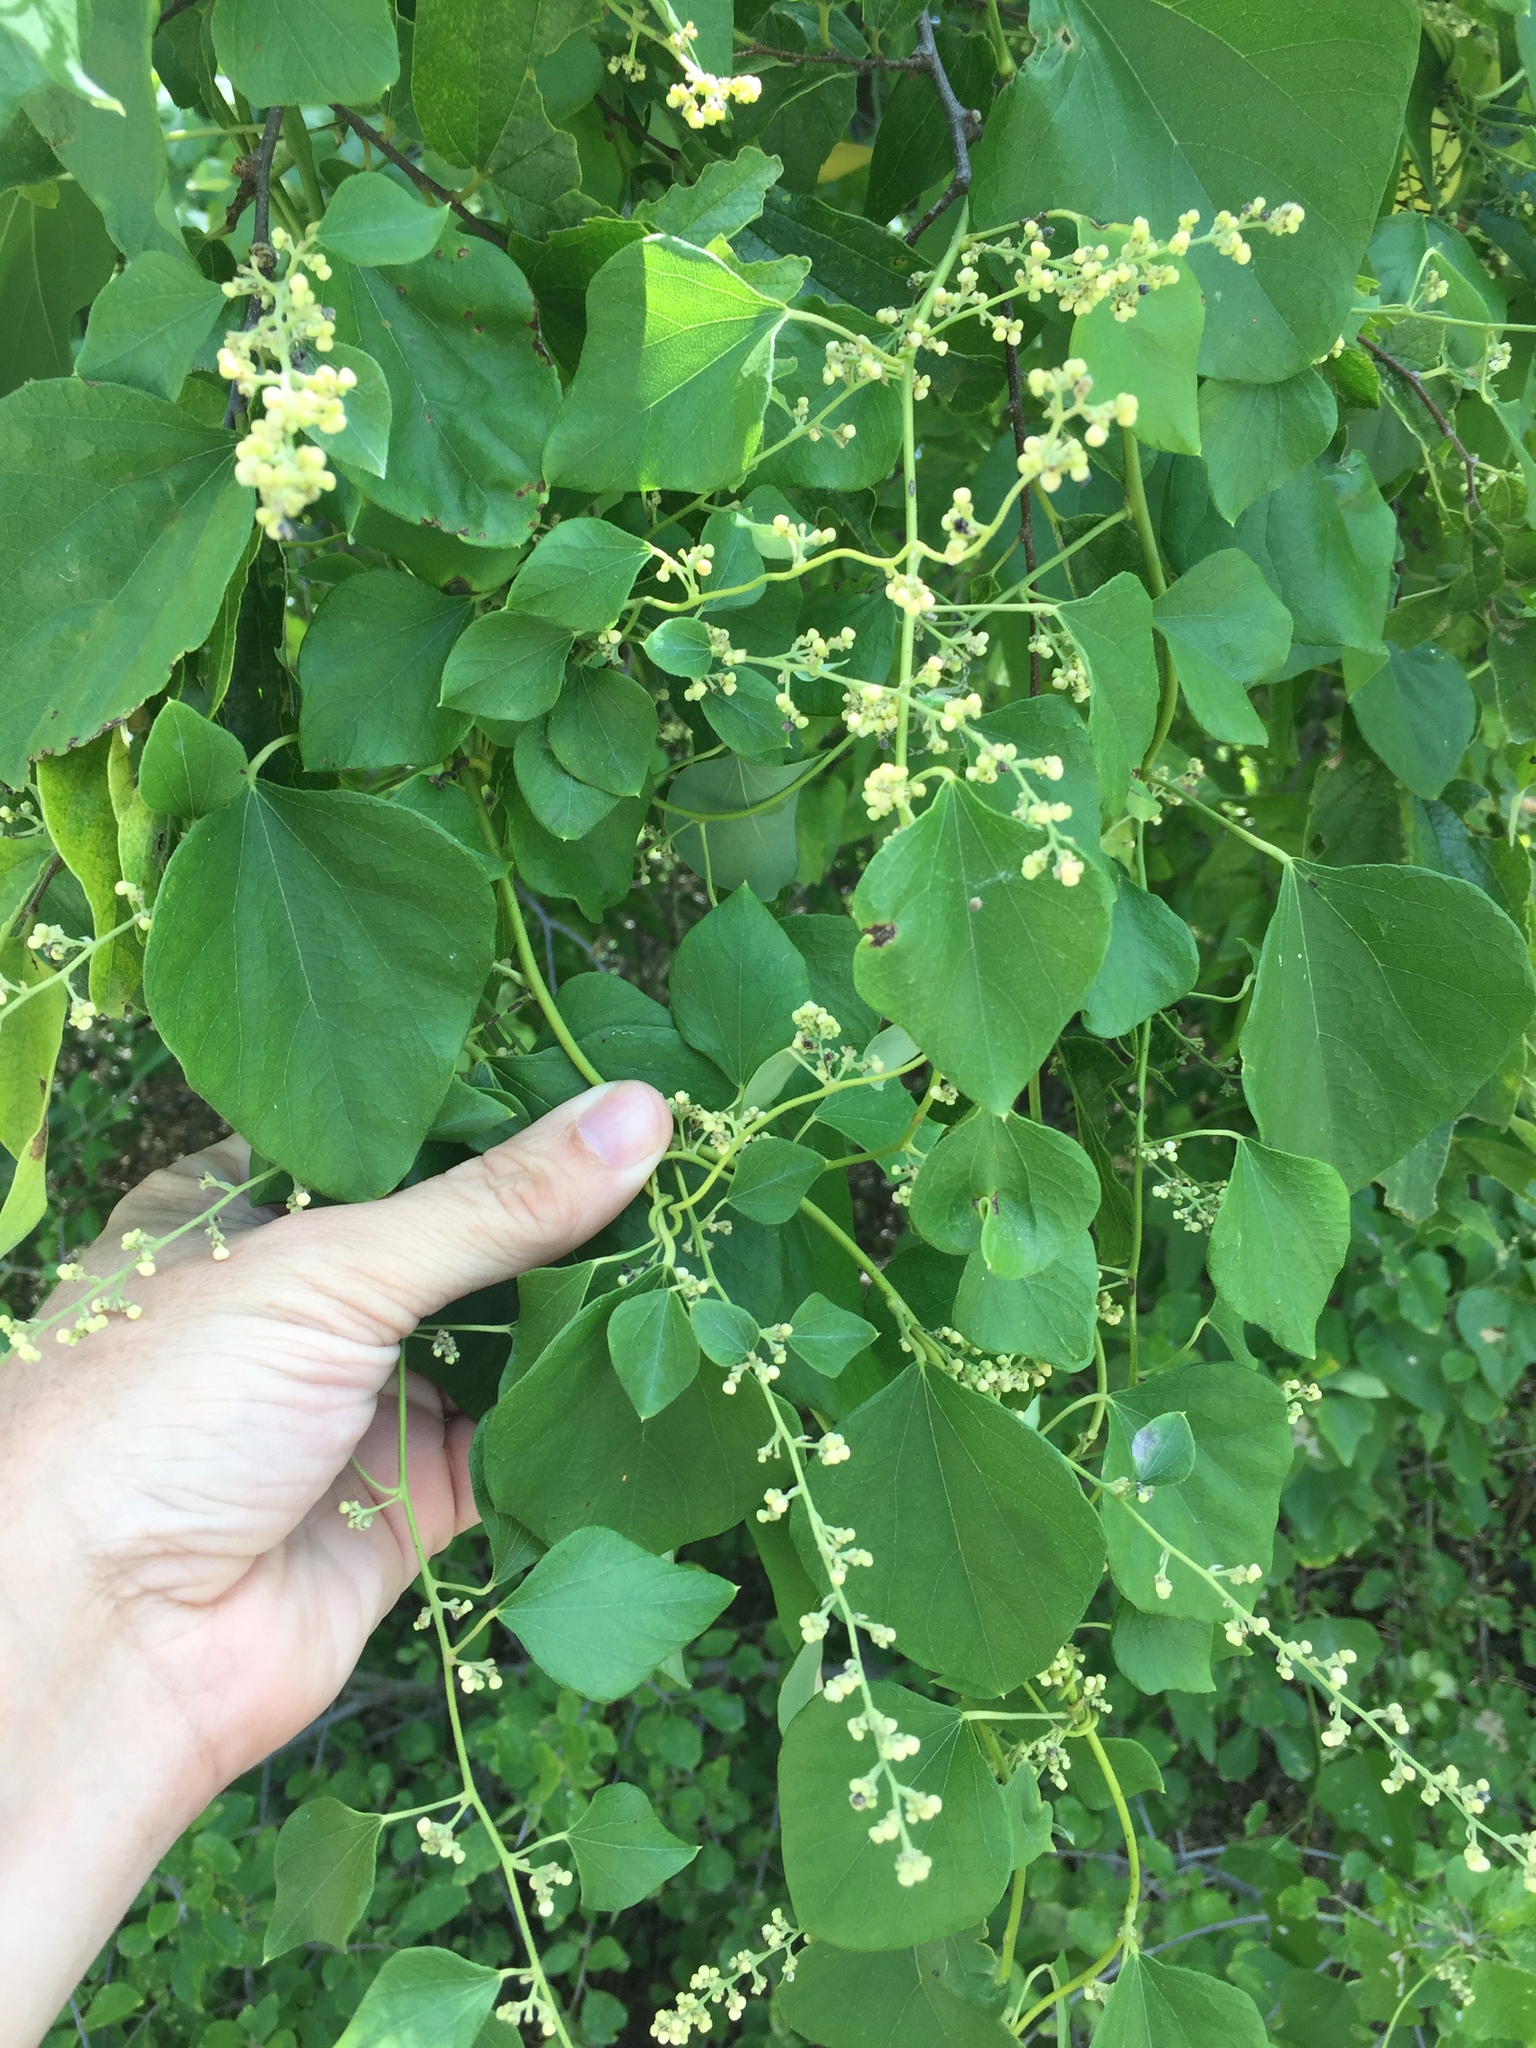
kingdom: Plantae
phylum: Tracheophyta
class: Magnoliopsida
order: Ranunculales
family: Menispermaceae
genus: Cocculus
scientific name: Cocculus carolinus
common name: Carolina moonseed
